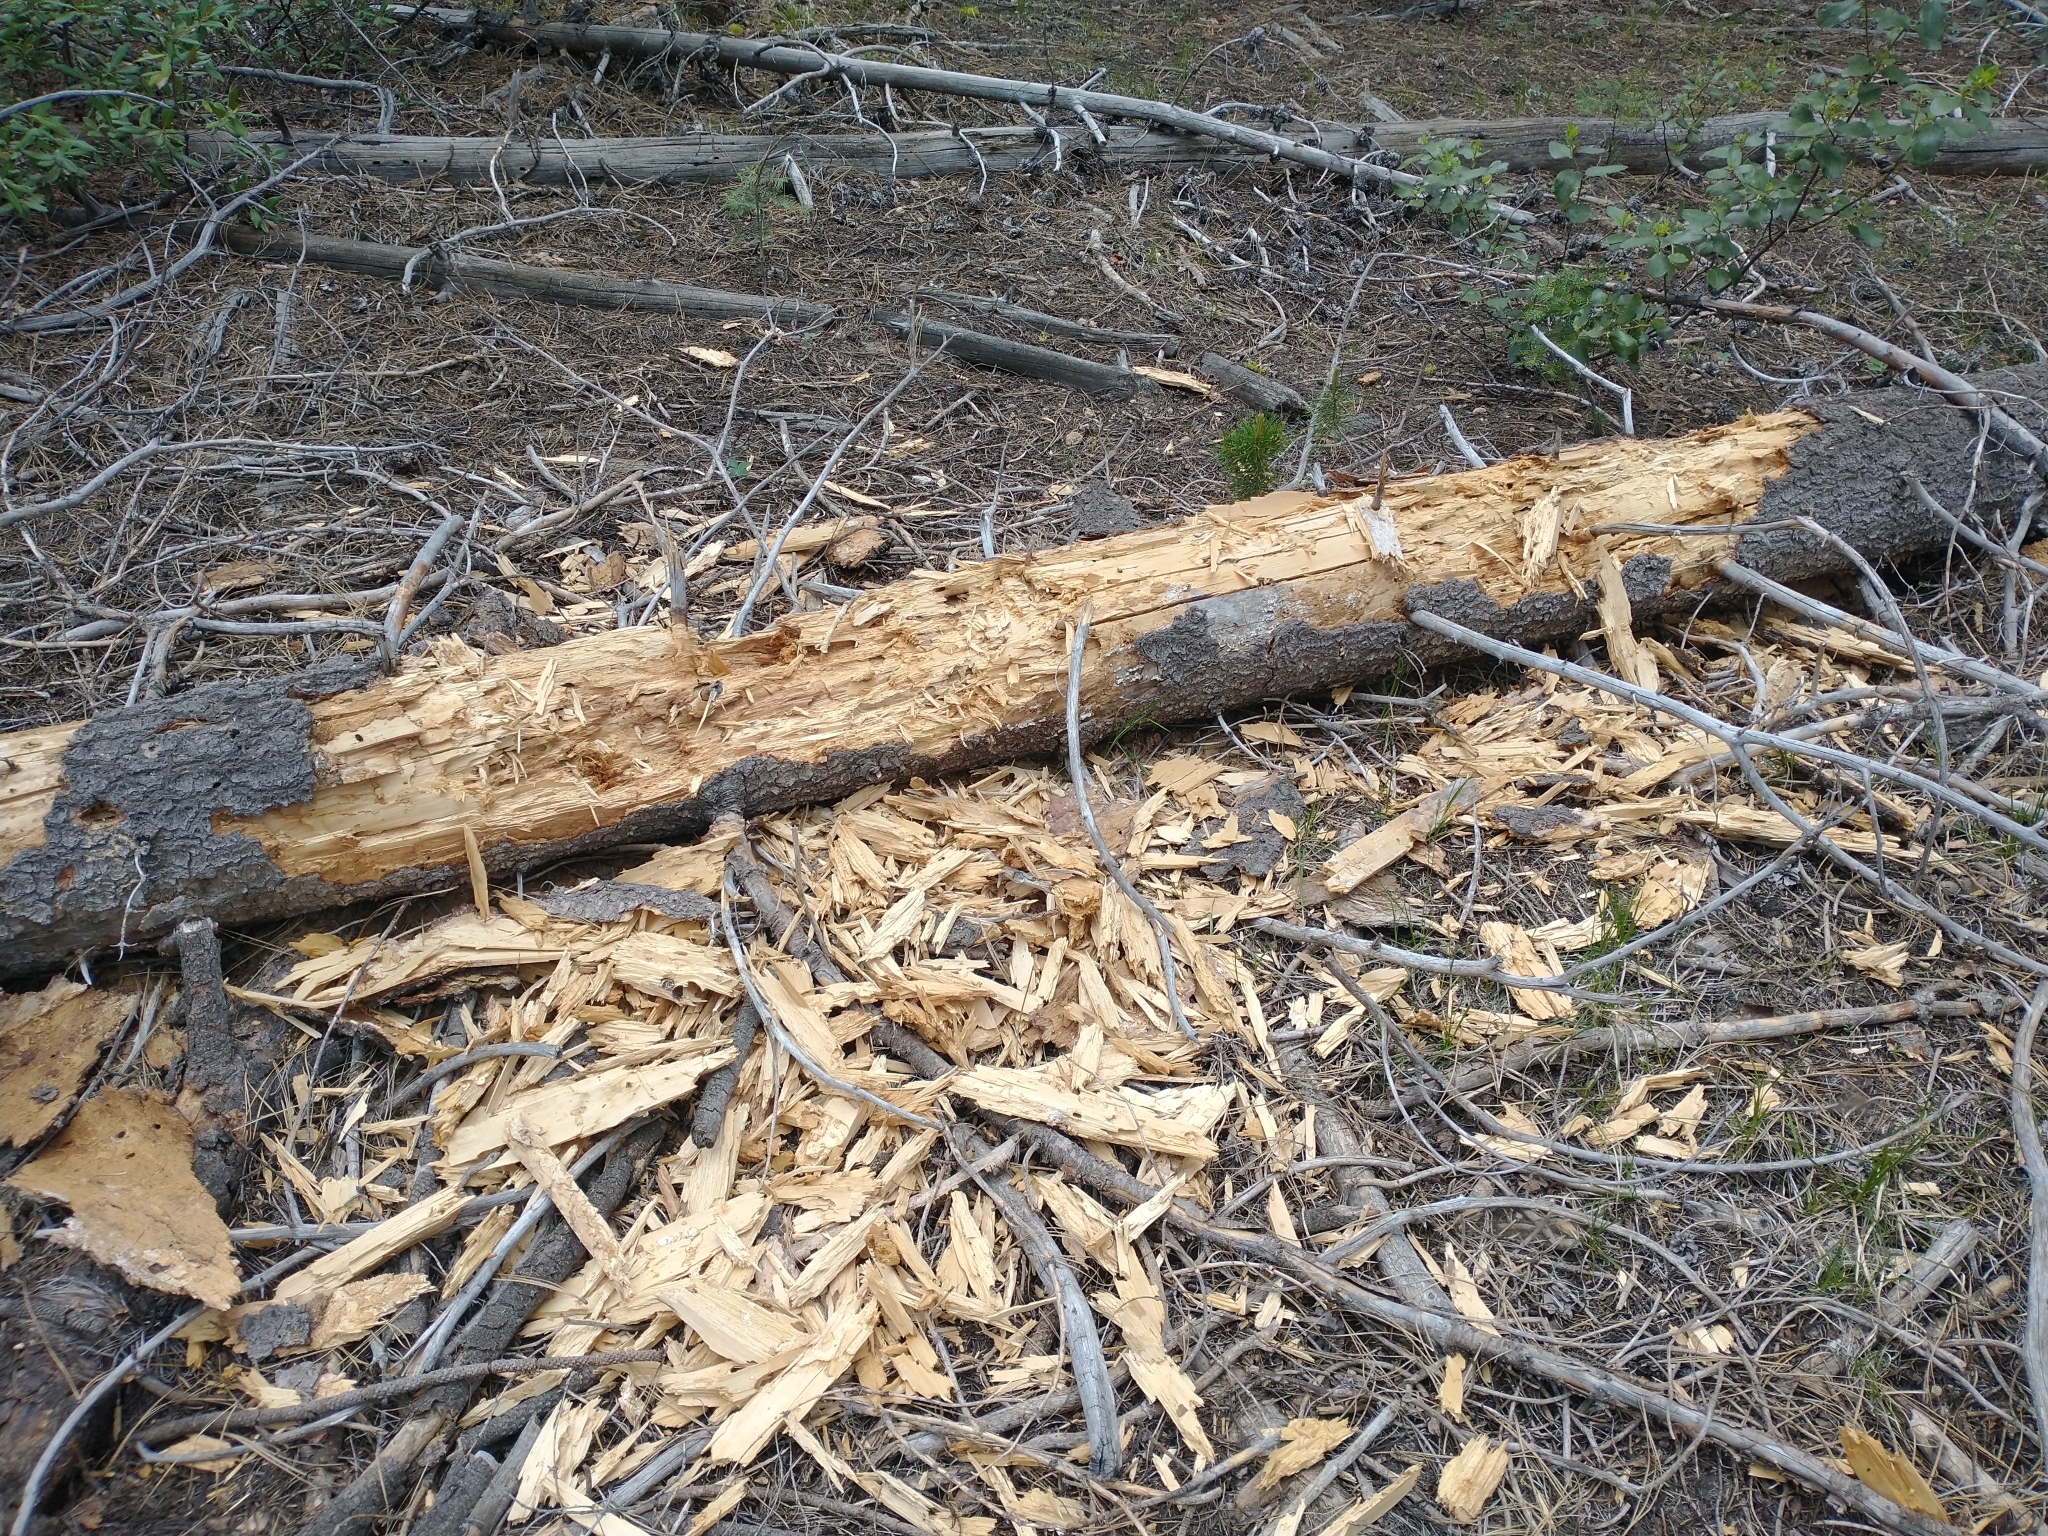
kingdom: Animalia
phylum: Chordata
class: Mammalia
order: Carnivora
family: Ursidae
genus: Ursus
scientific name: Ursus americanus
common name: American black bear
